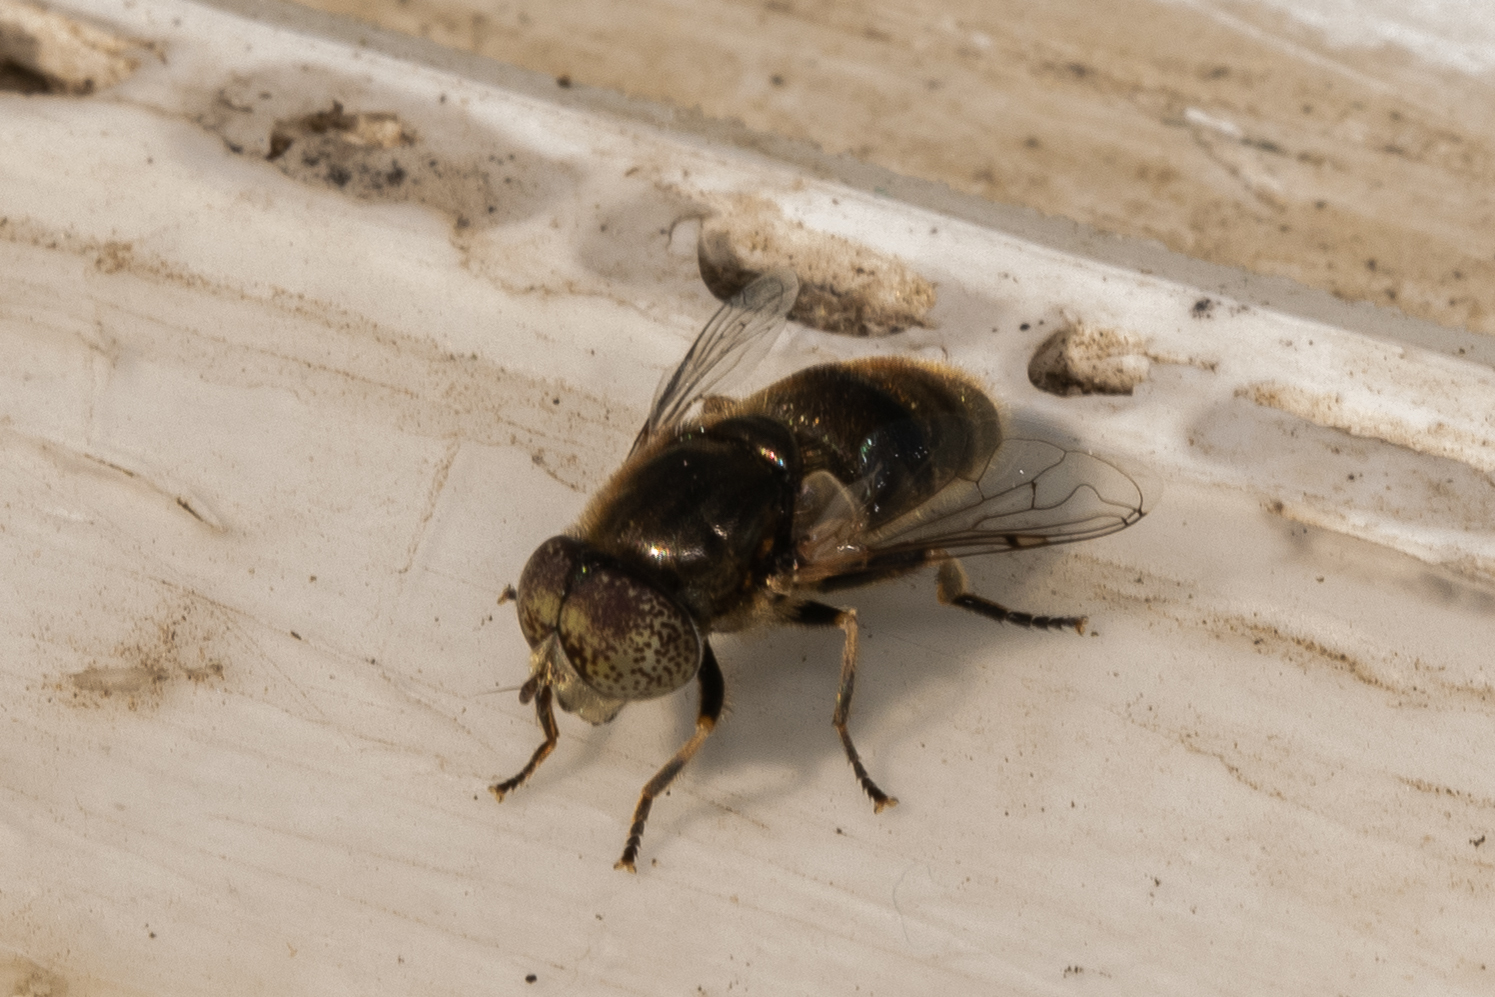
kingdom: Animalia
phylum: Arthropoda
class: Insecta
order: Diptera
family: Syrphidae
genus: Eristalinus
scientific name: Eristalinus aeneus
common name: Syrphid fly
